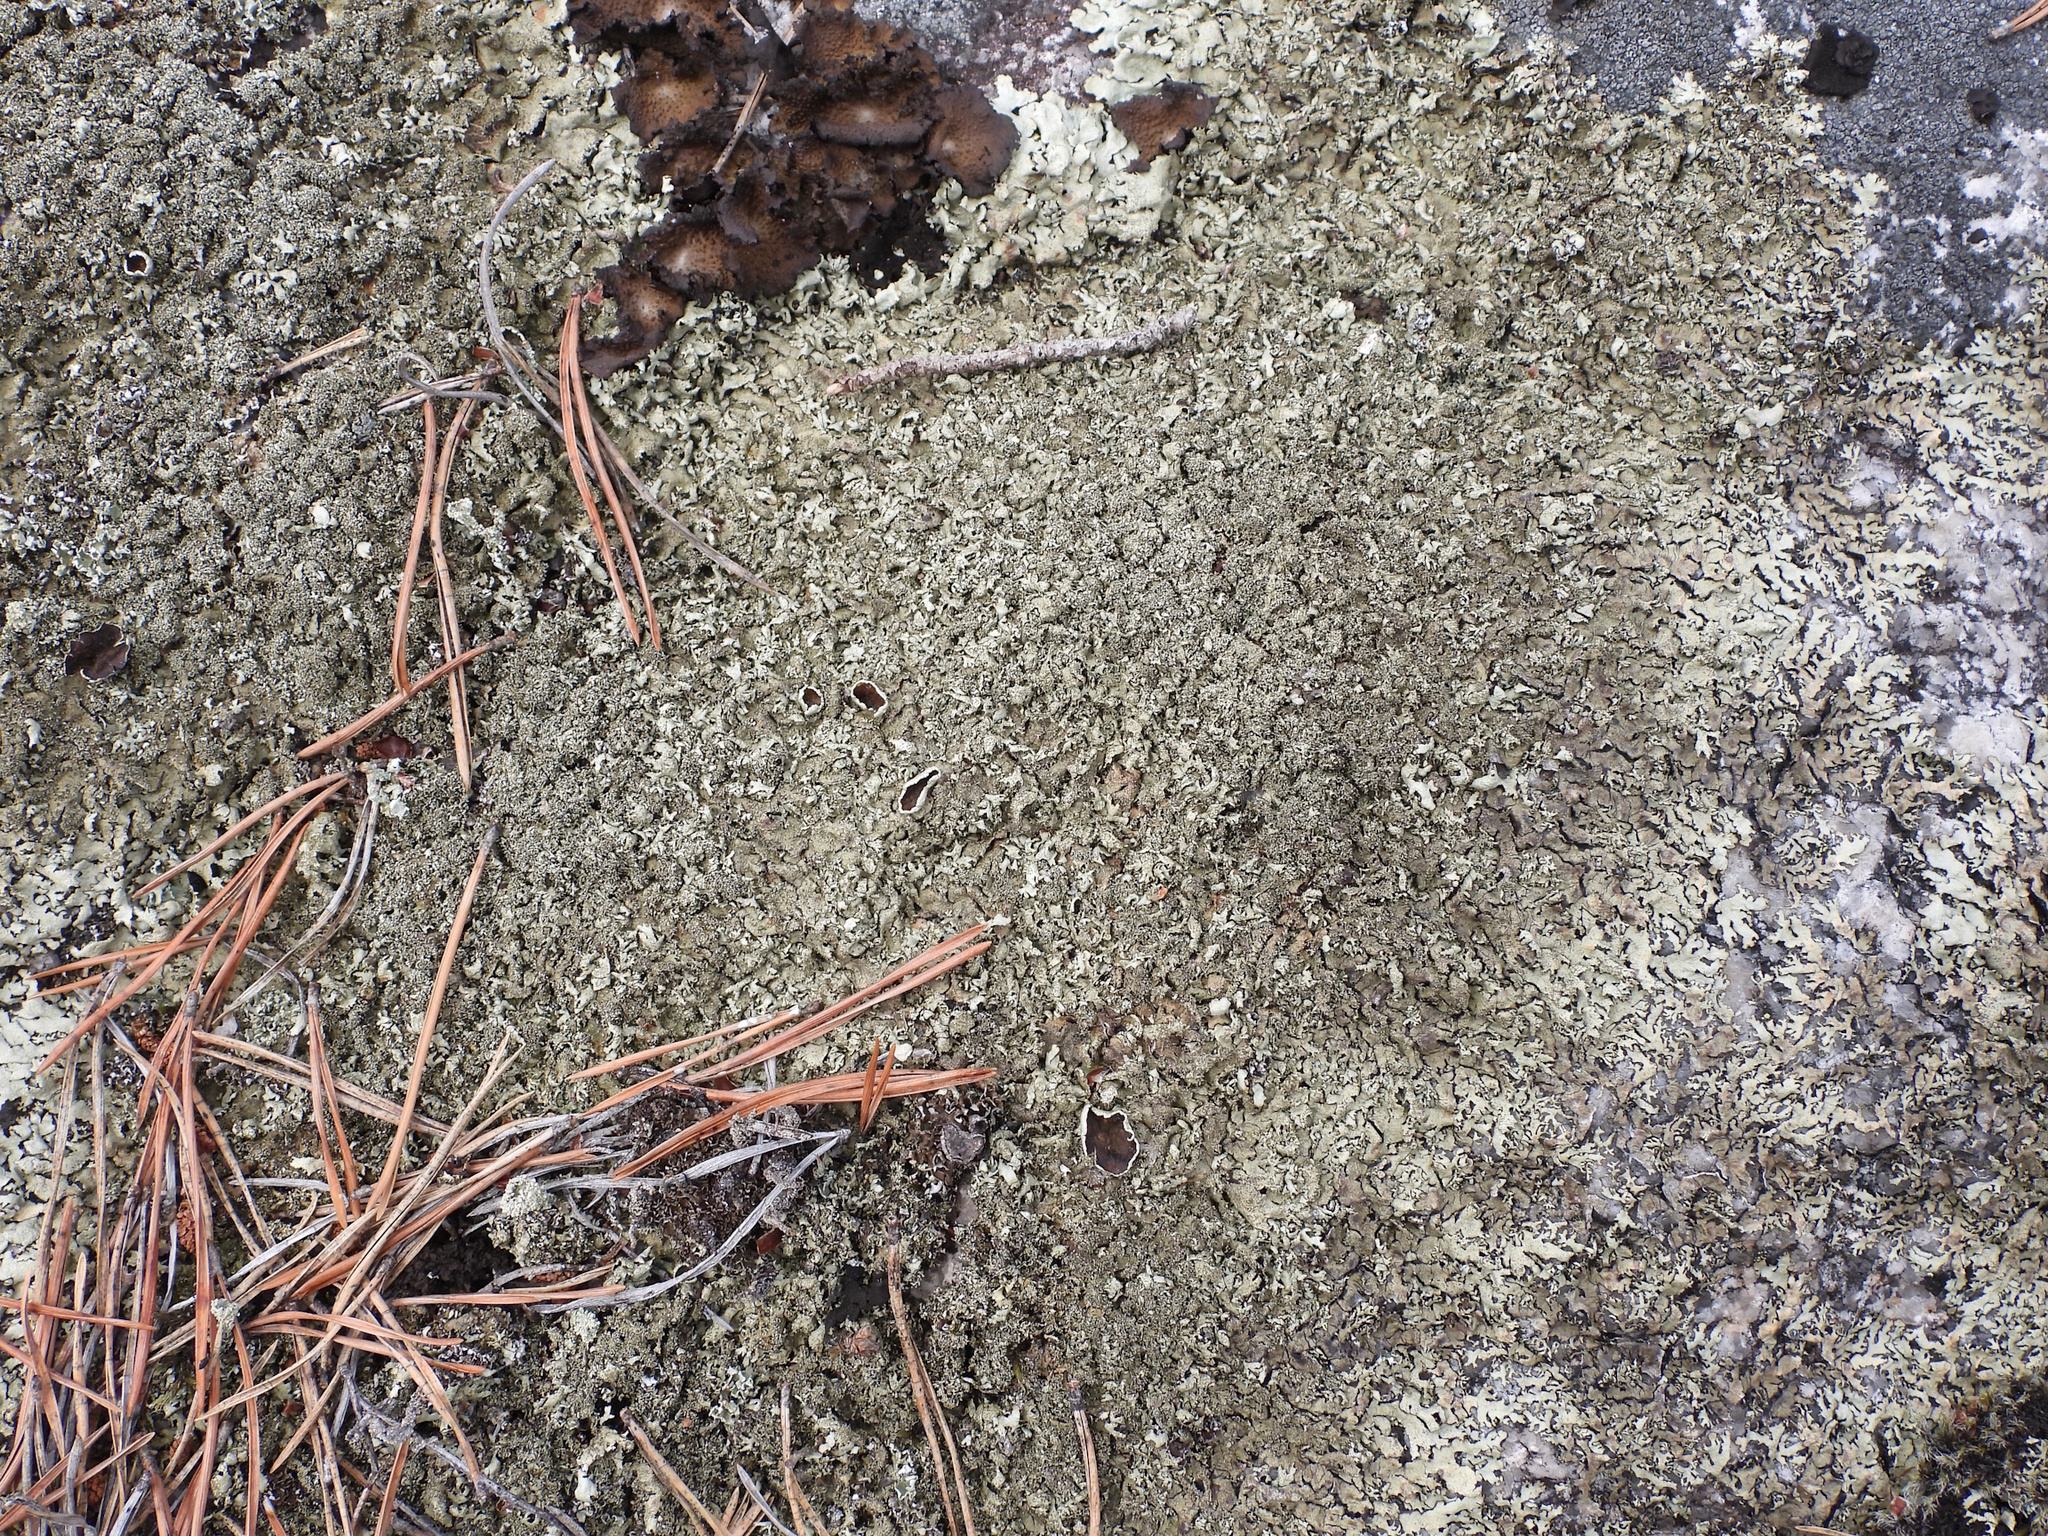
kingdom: Fungi
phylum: Ascomycota
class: Lecanoromycetes
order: Lecanorales
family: Parmeliaceae
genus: Xanthoparmelia
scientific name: Xanthoparmelia conspersa
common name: Peppered rock shield
